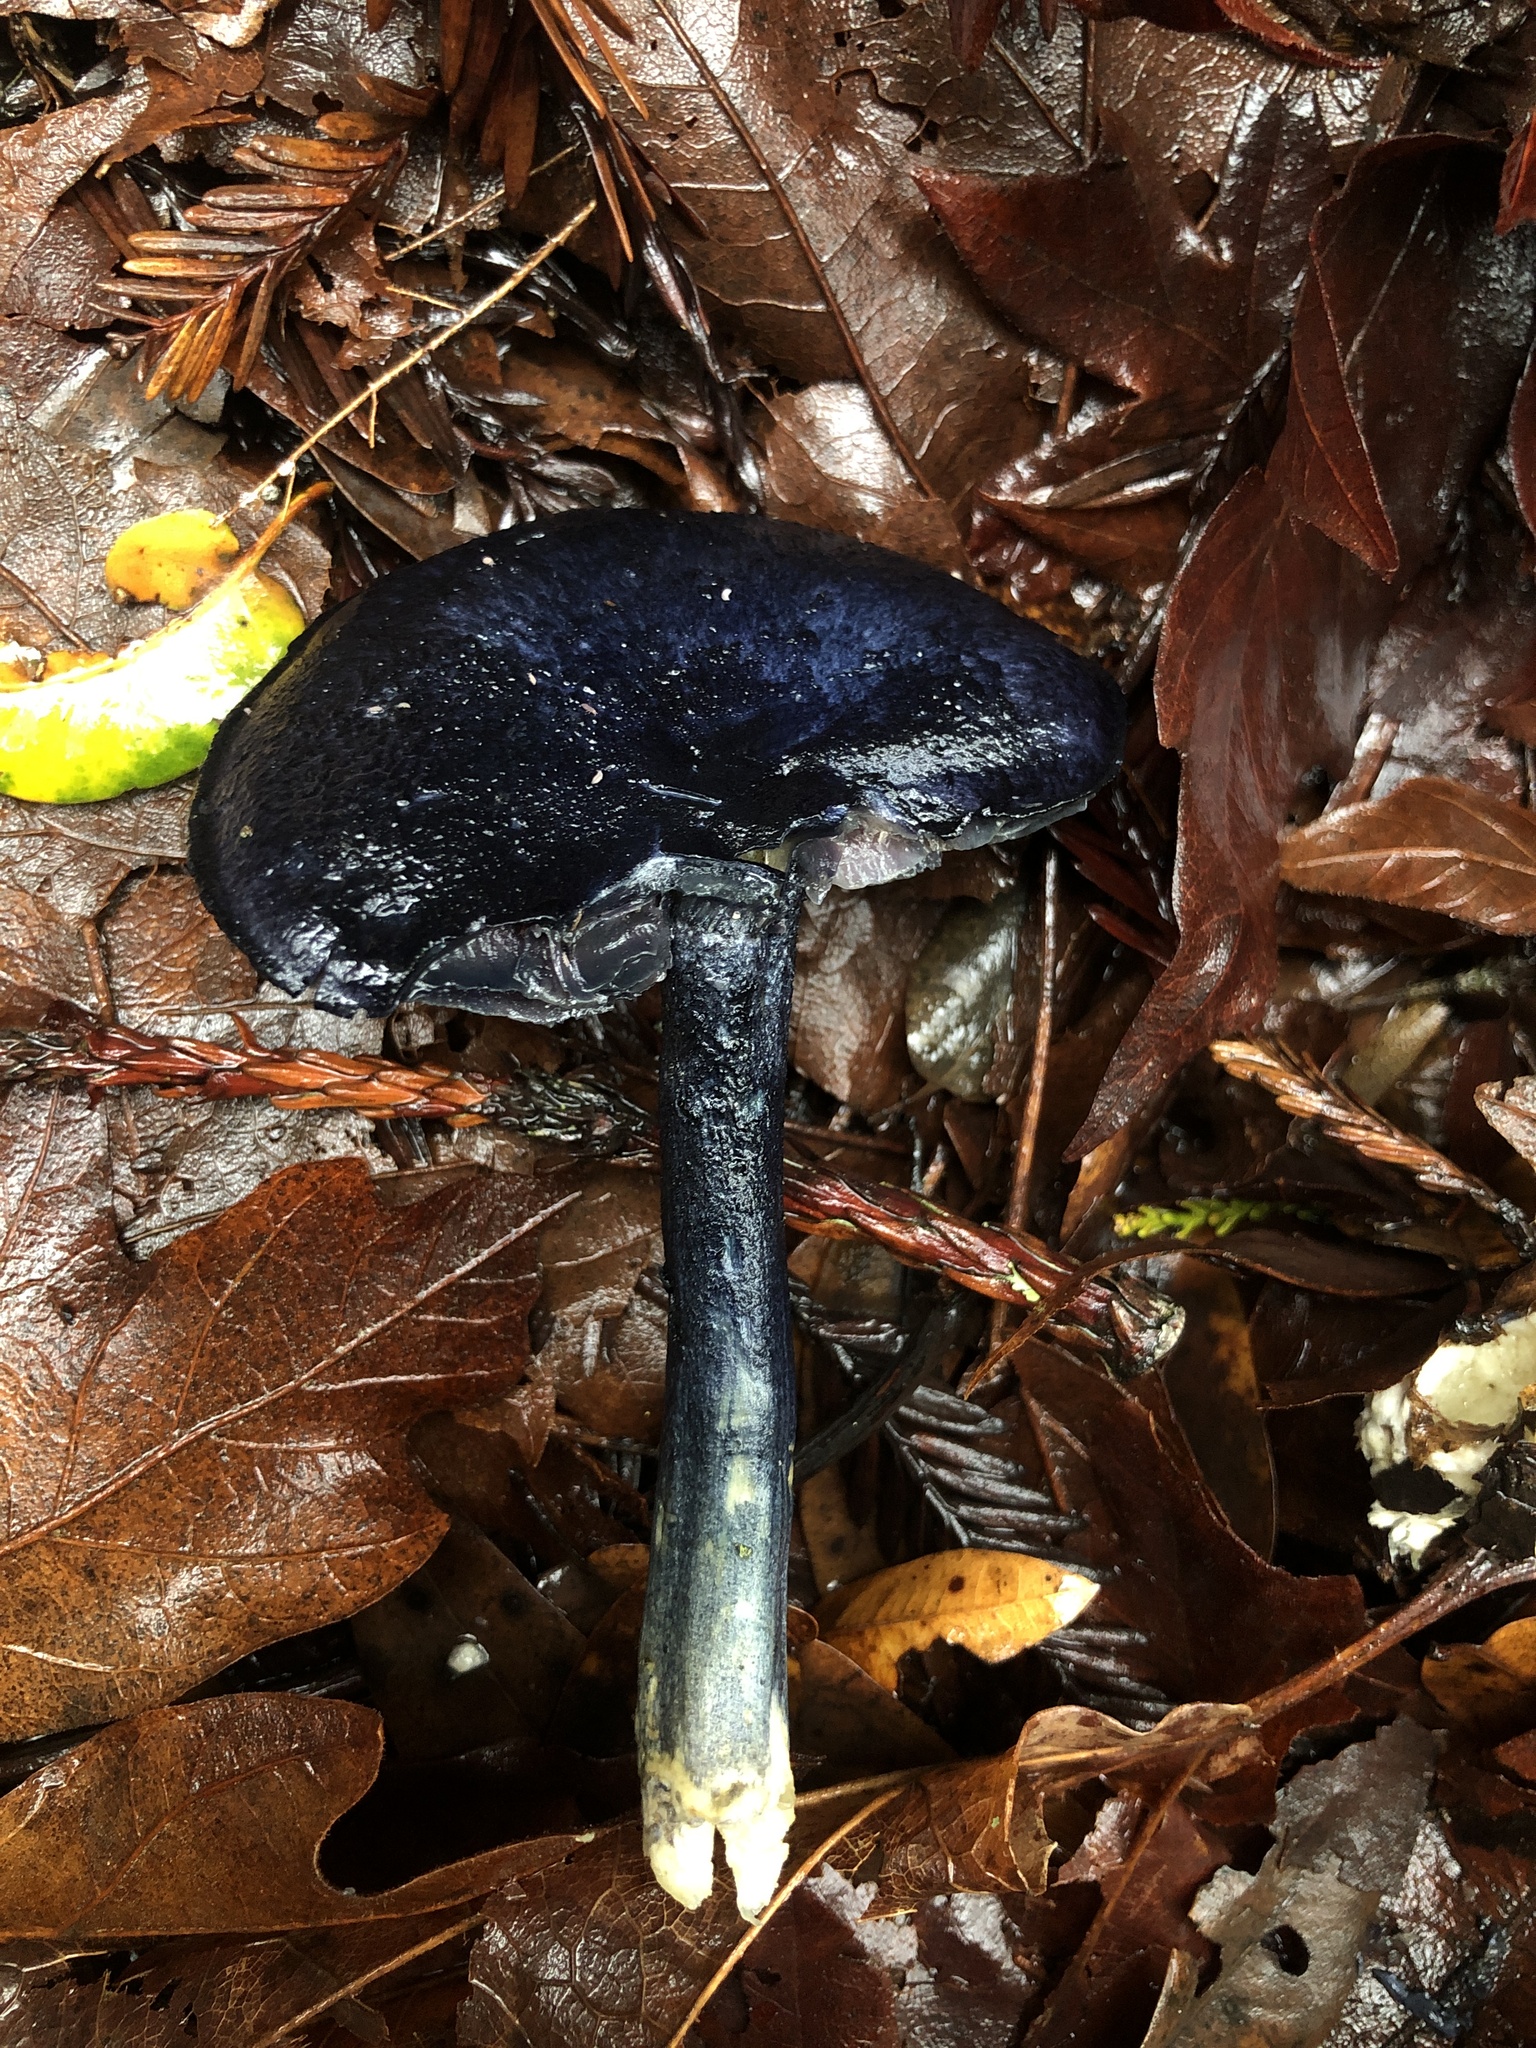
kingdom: Fungi
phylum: Basidiomycota
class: Agaricomycetes
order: Agaricales
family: Entolomataceae
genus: Entoloma
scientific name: Entoloma subcarneum
